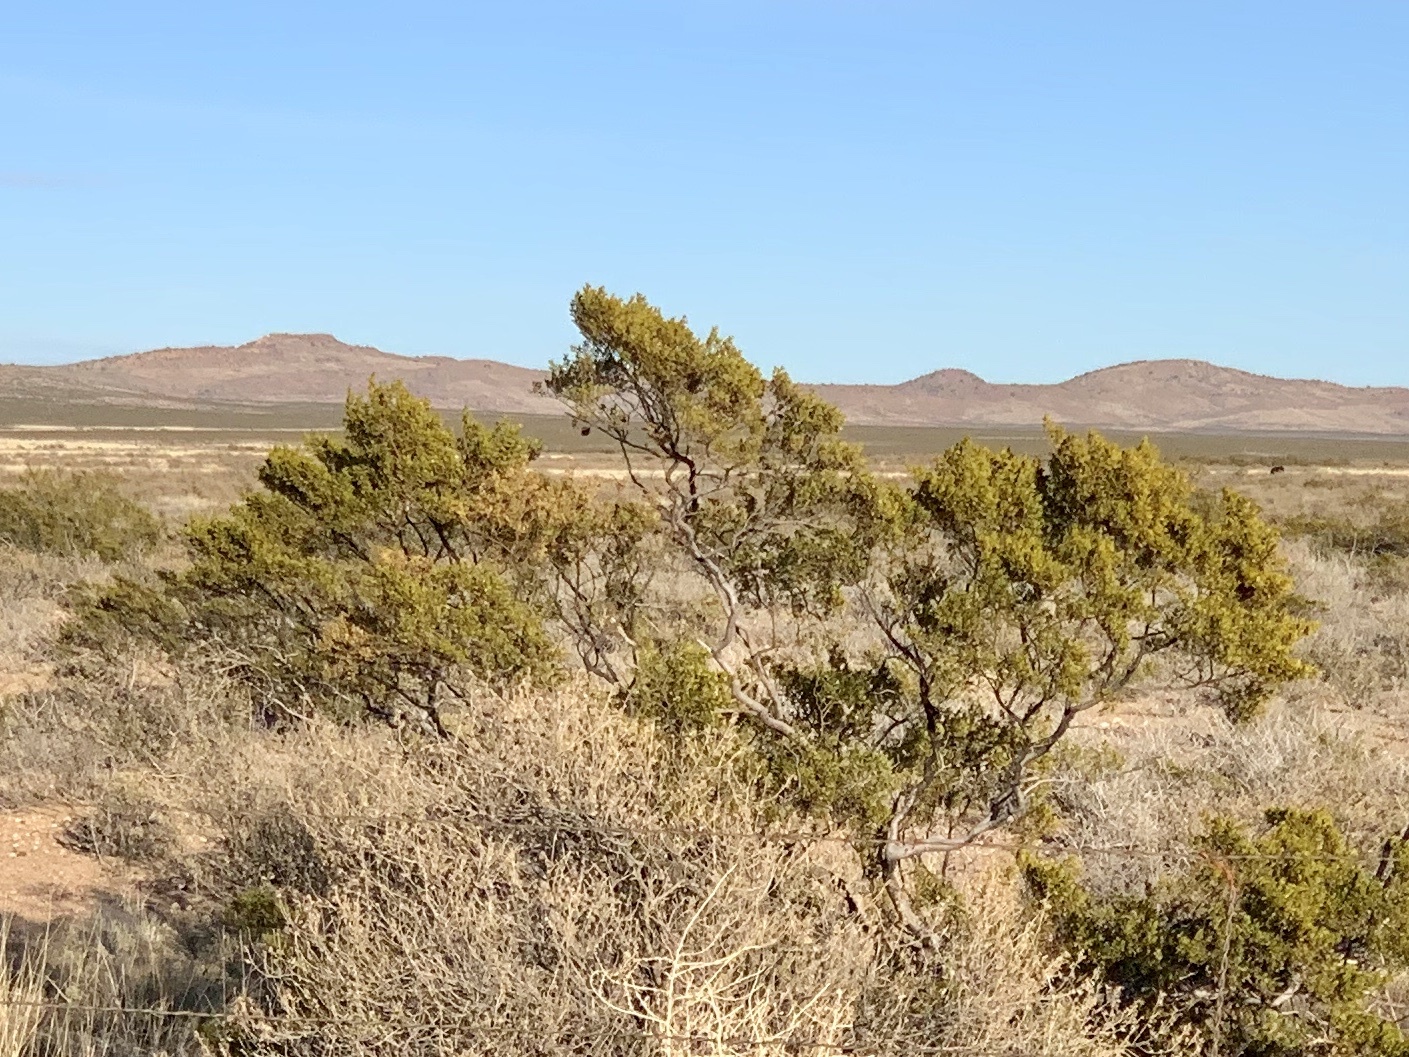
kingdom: Plantae
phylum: Tracheophyta
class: Magnoliopsida
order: Zygophyllales
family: Zygophyllaceae
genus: Larrea
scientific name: Larrea tridentata
